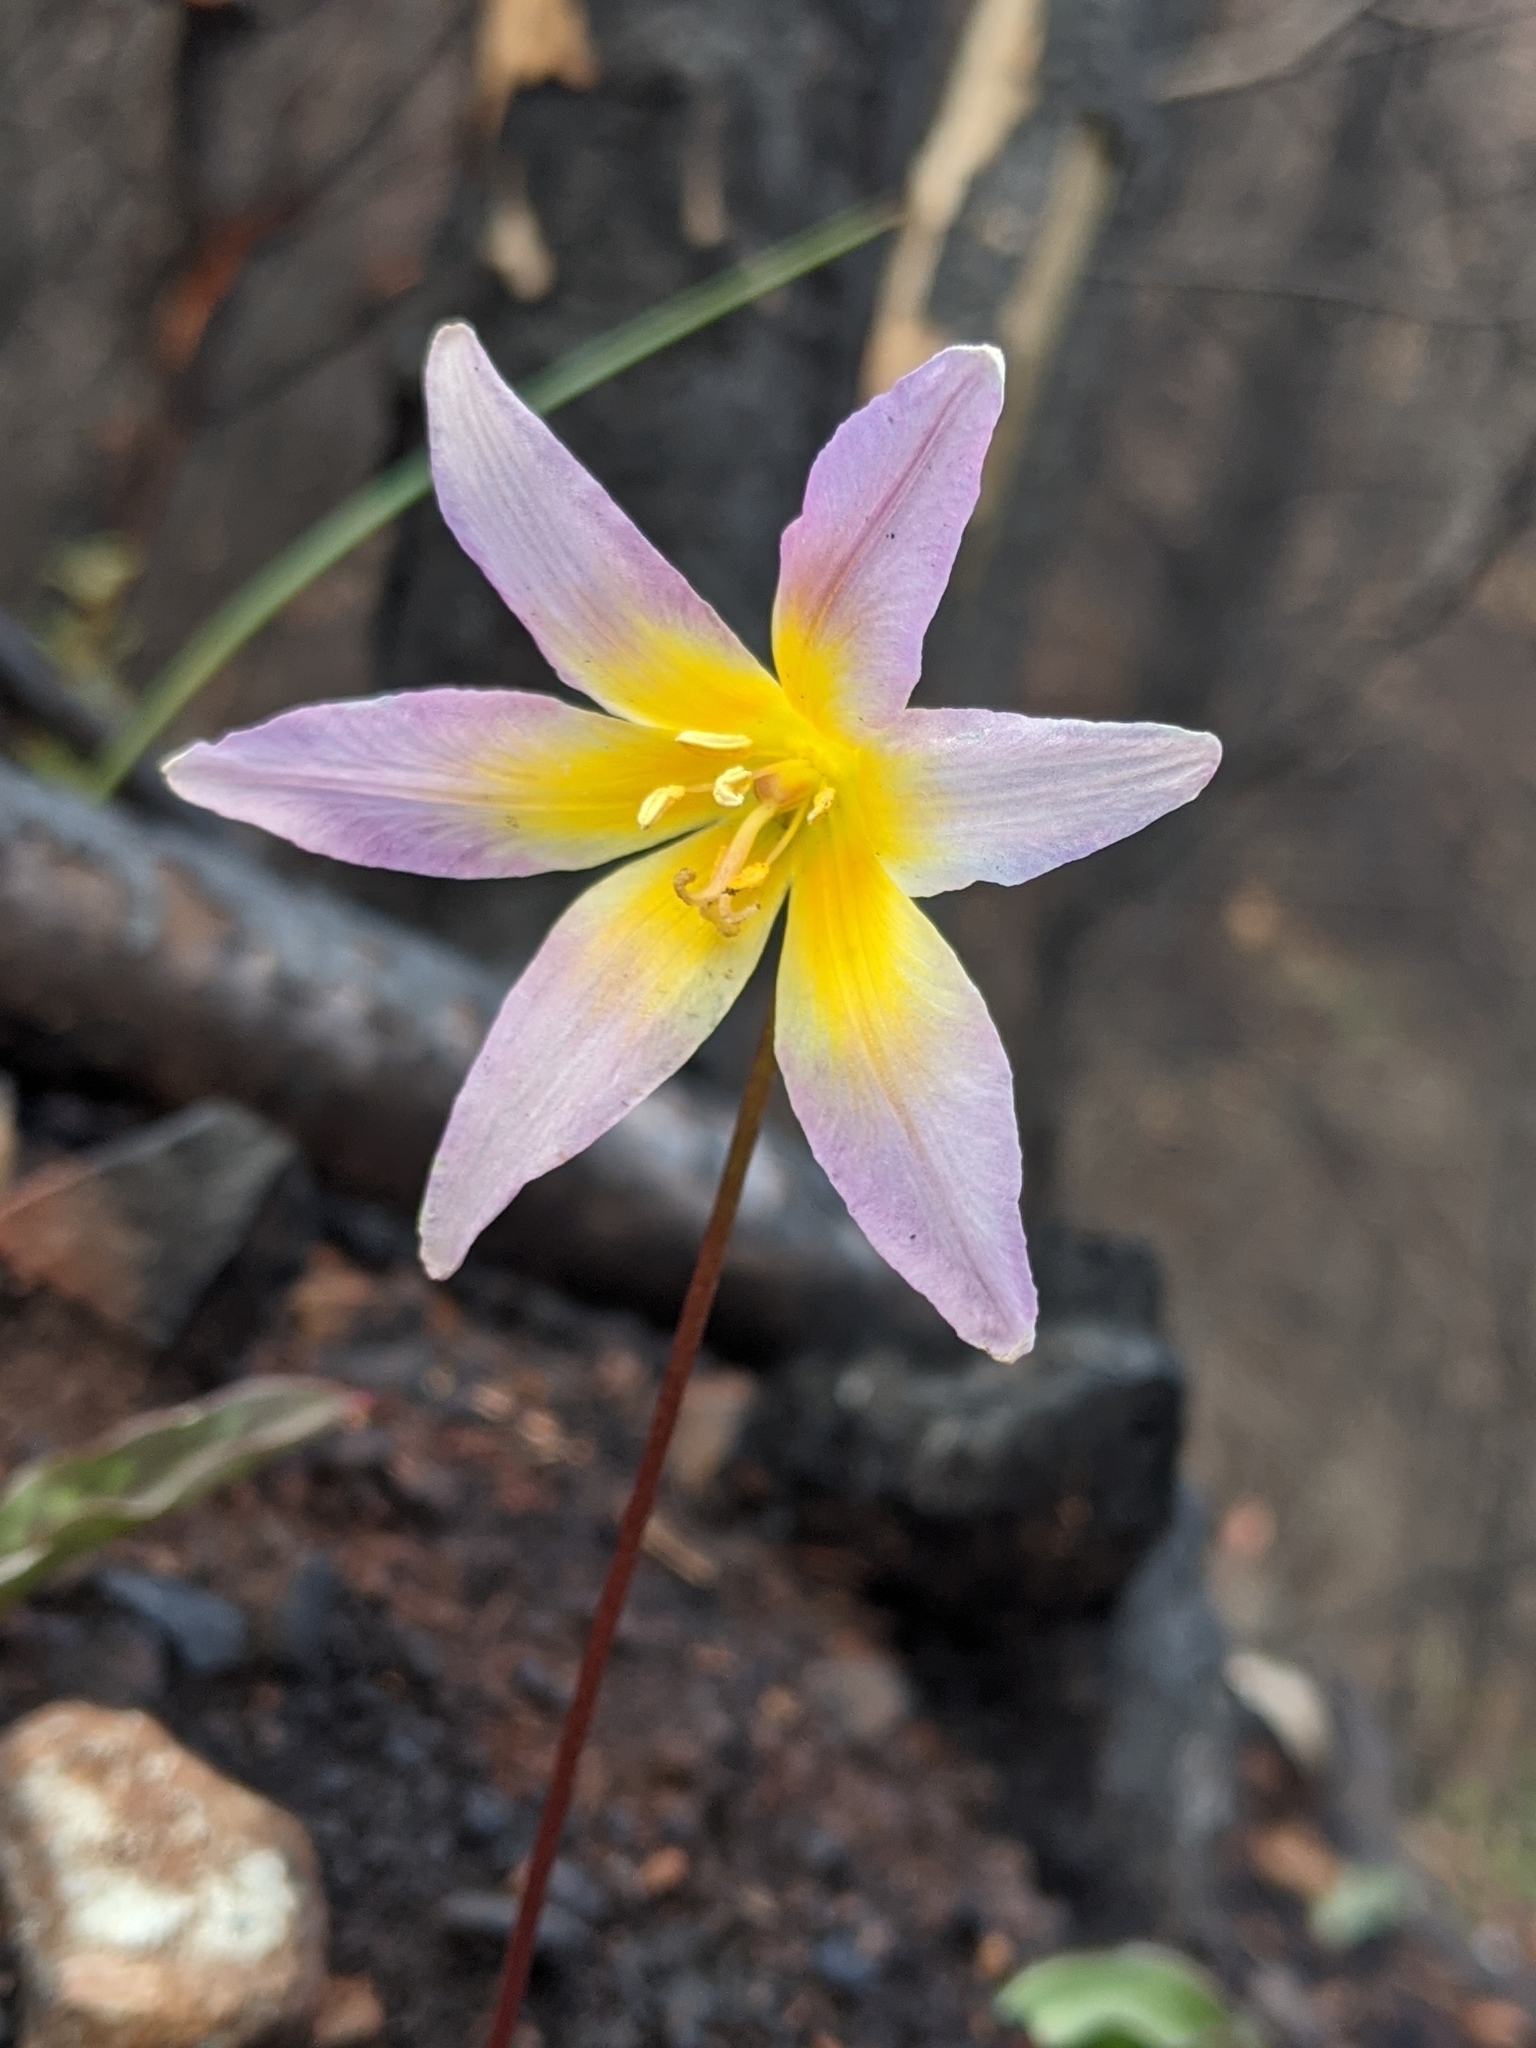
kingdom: Plantae
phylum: Tracheophyta
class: Liliopsida
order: Liliales
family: Liliaceae
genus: Erythronium
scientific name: Erythronium helenae
